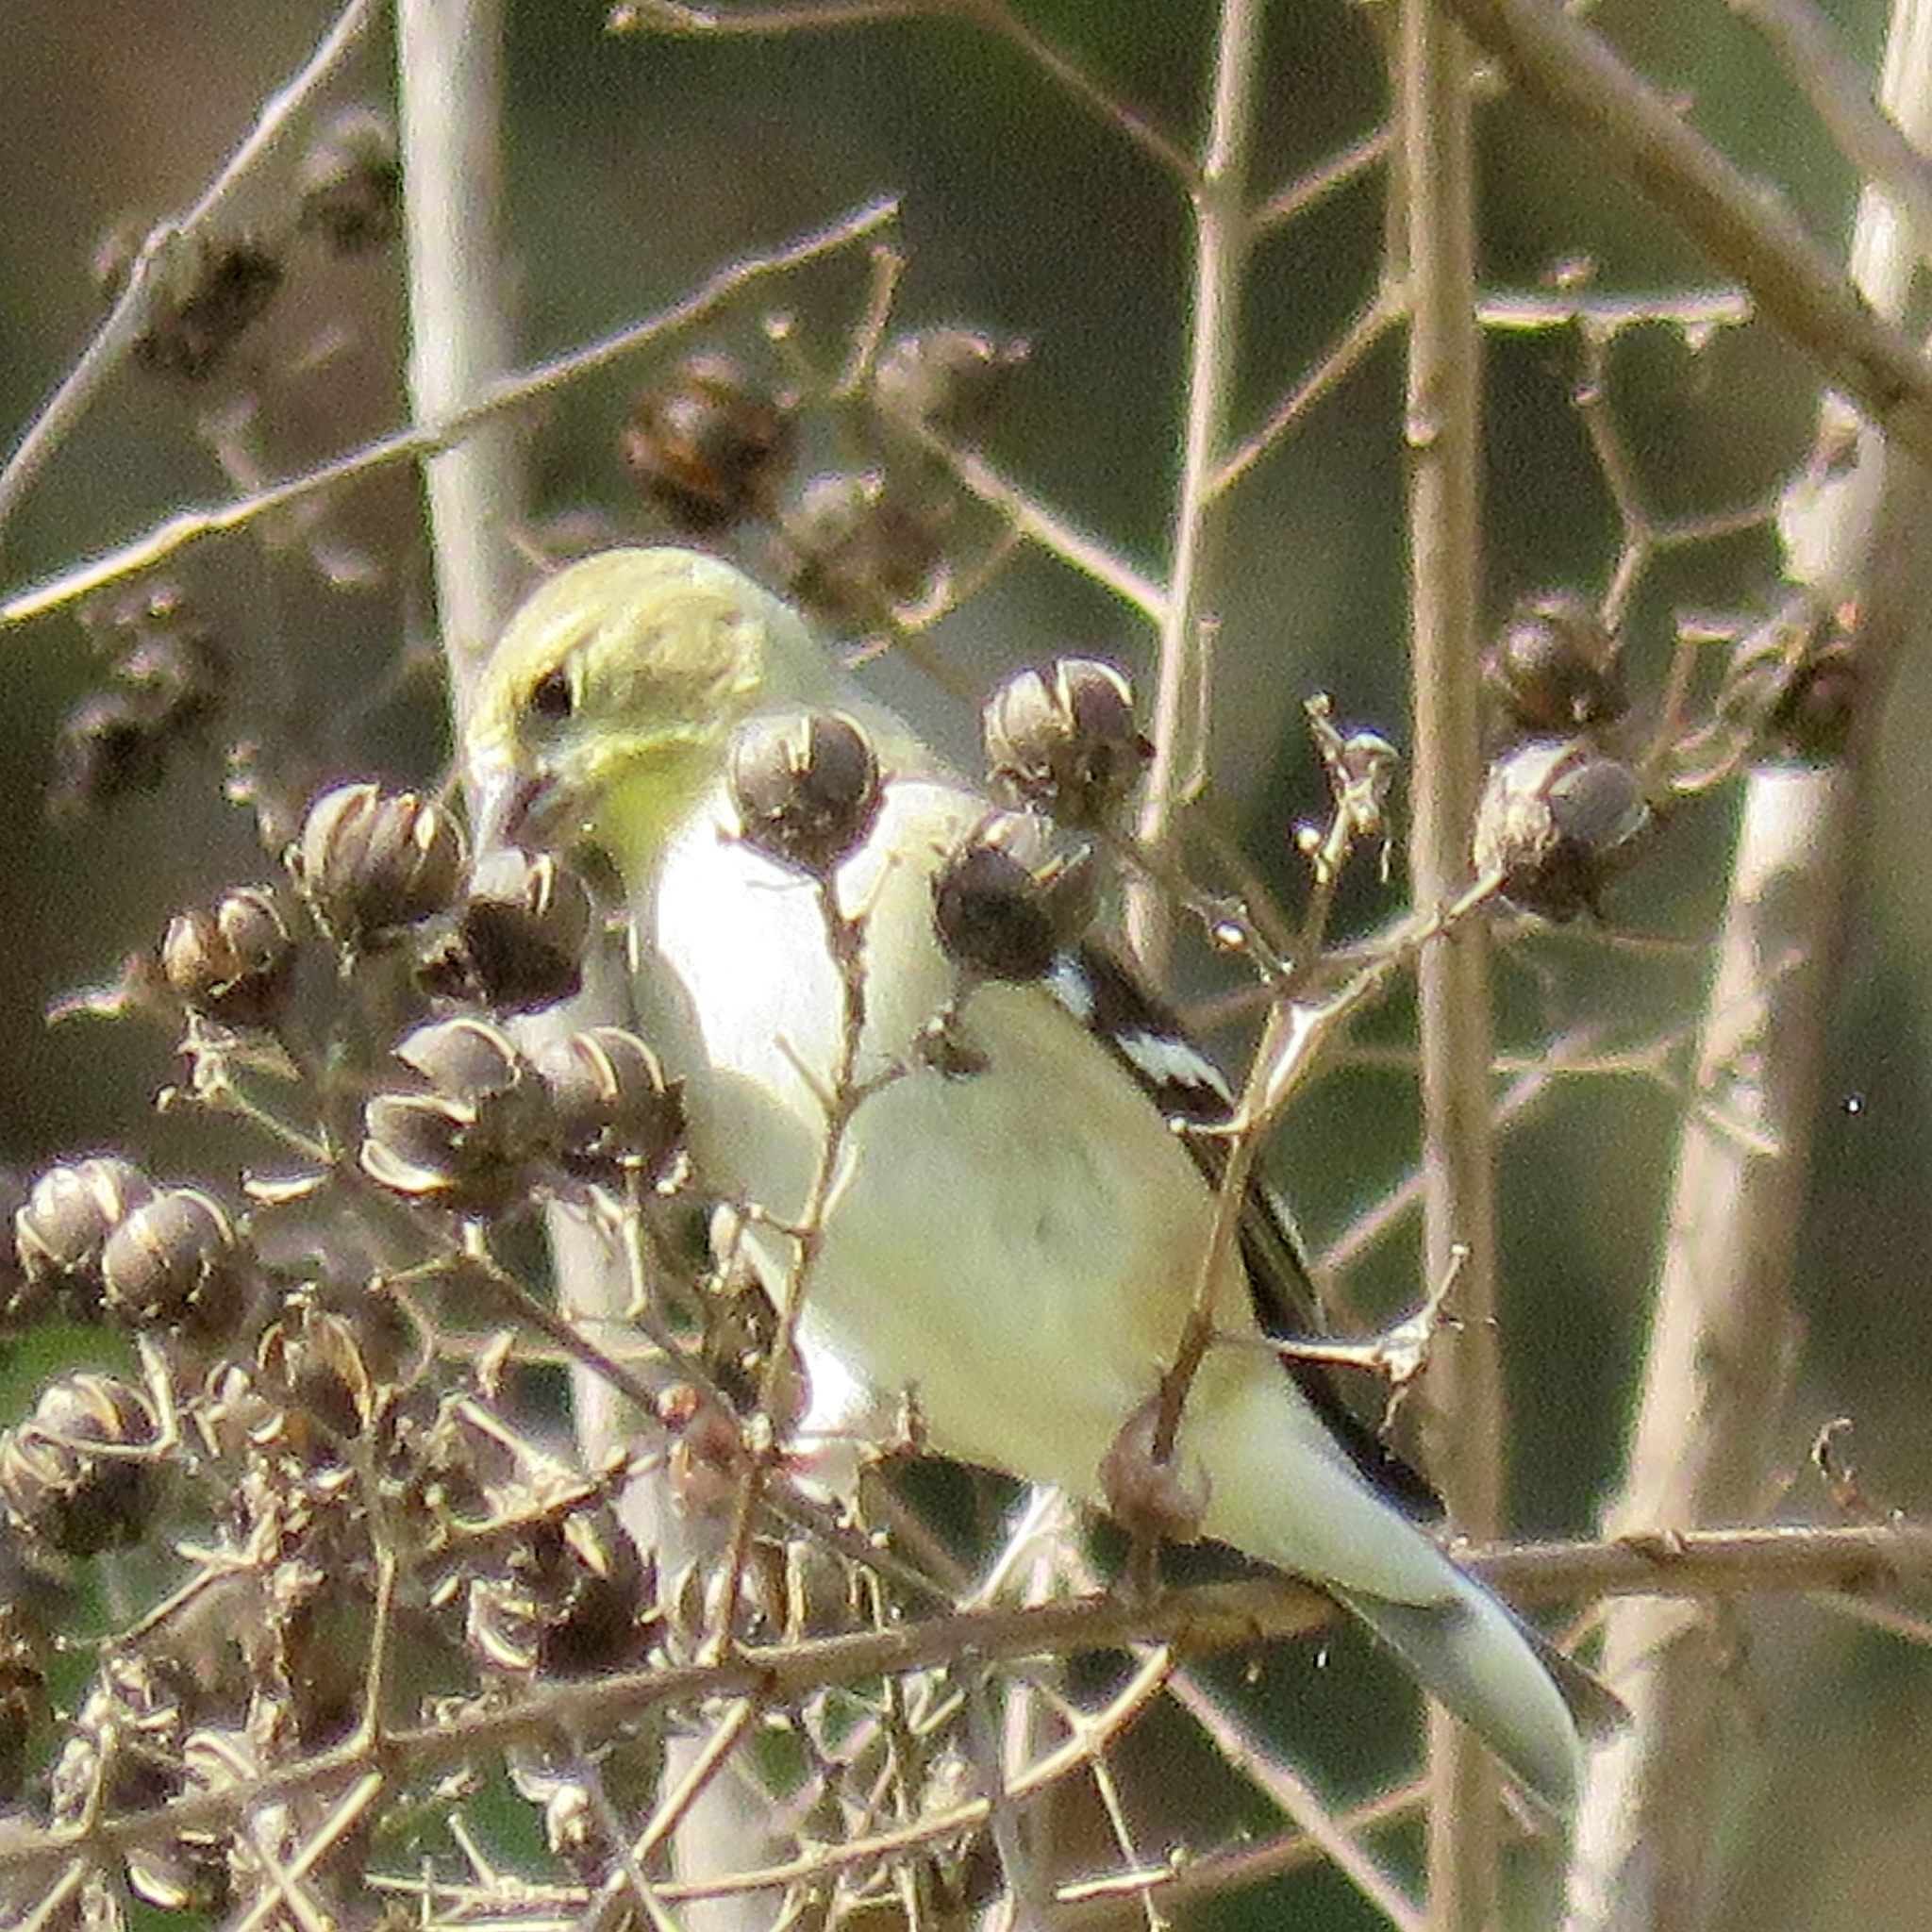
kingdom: Animalia
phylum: Chordata
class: Aves
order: Passeriformes
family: Fringillidae
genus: Spinus
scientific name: Spinus tristis
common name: American goldfinch
